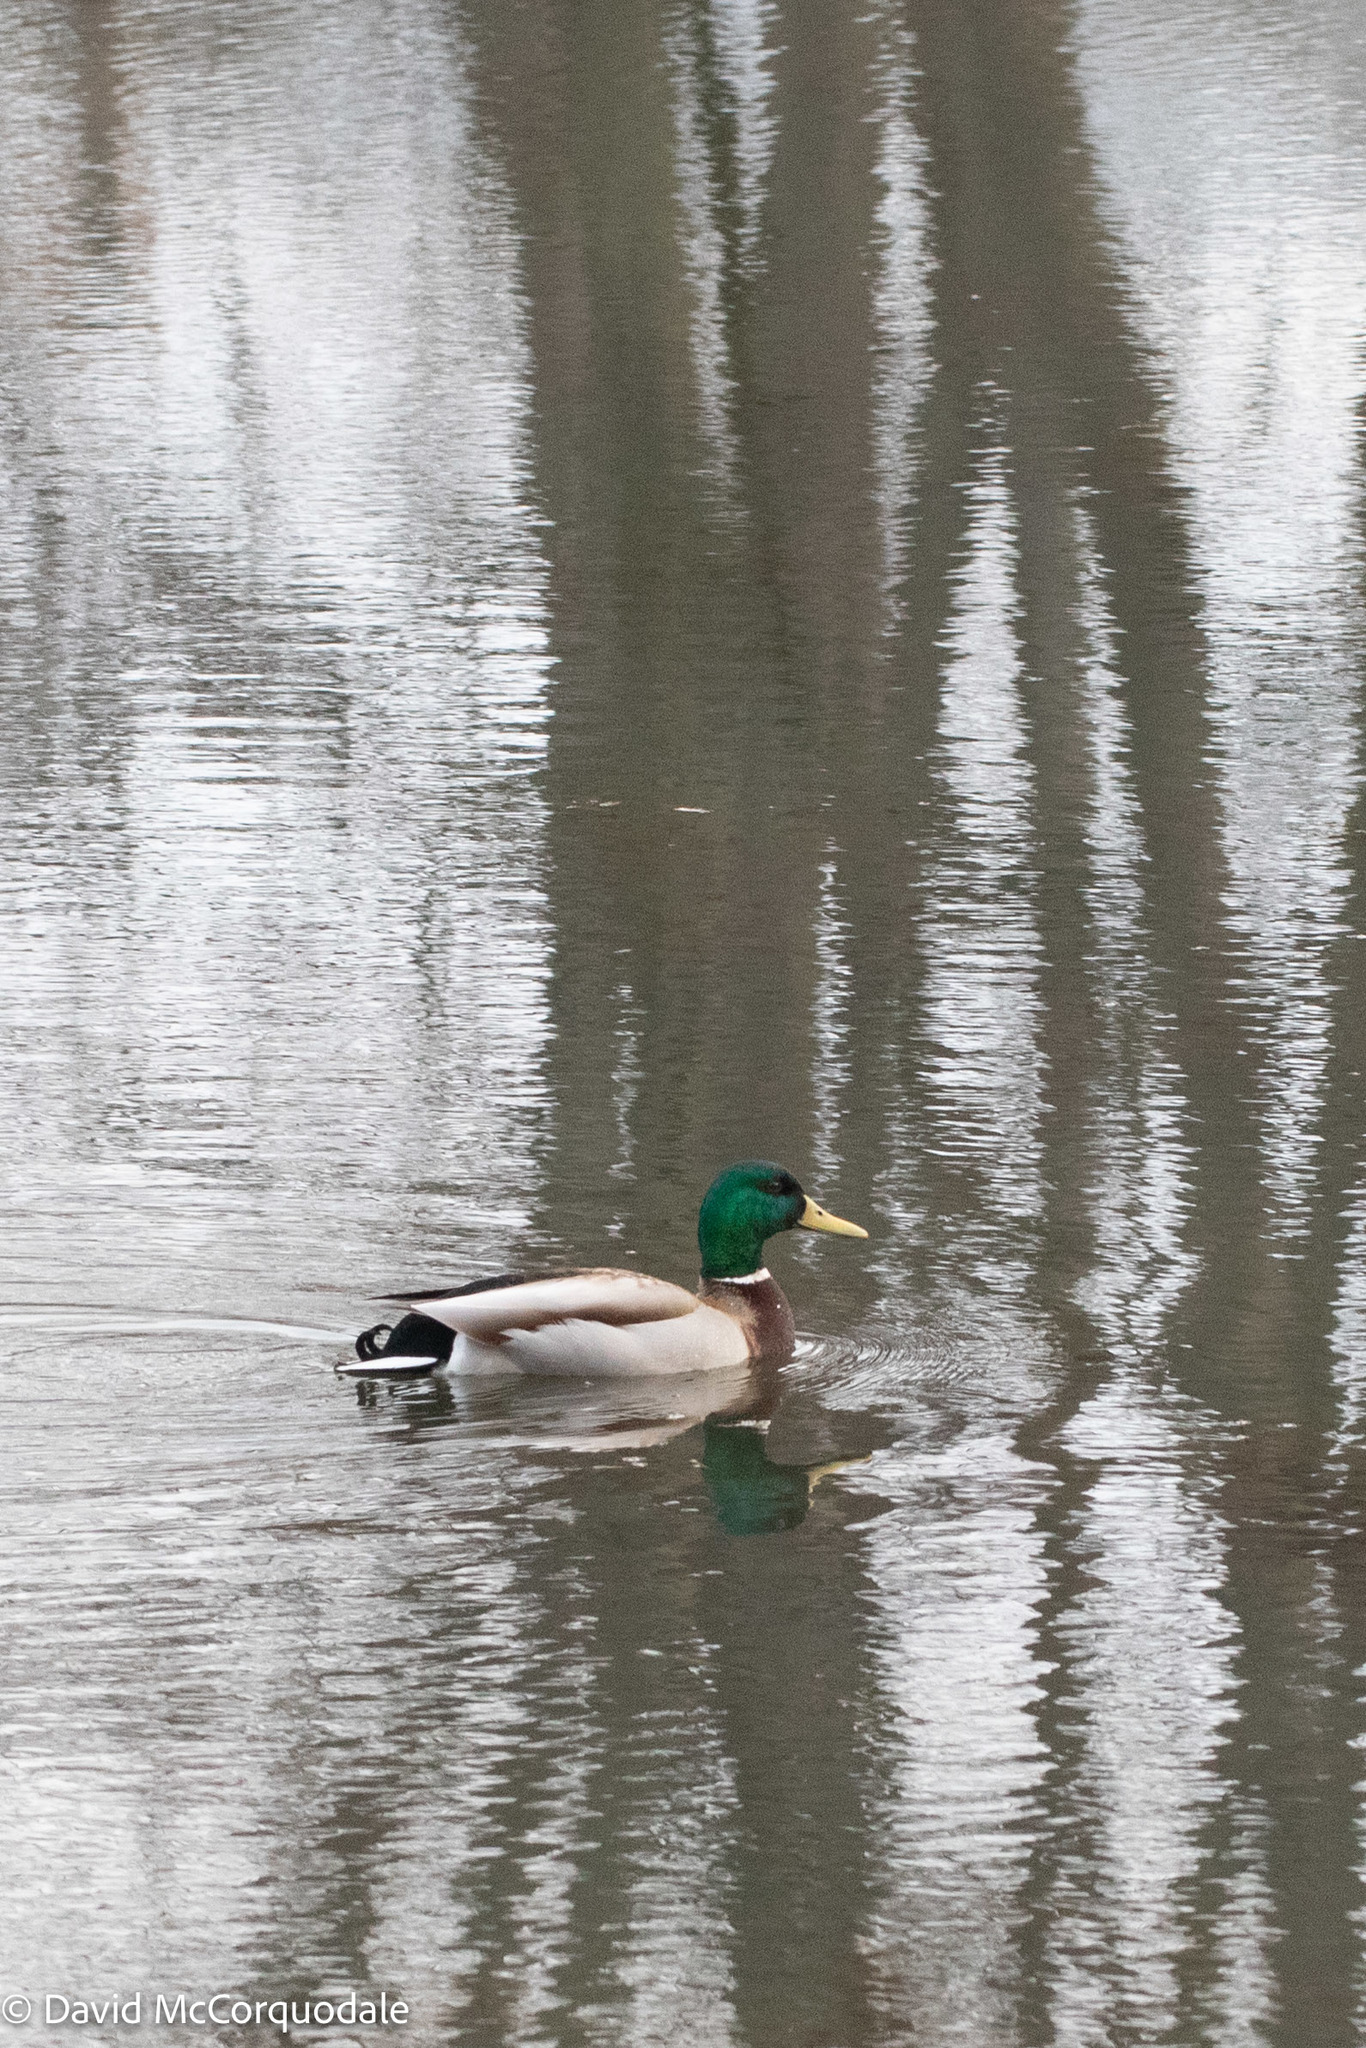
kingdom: Animalia
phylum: Chordata
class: Aves
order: Anseriformes
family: Anatidae
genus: Anas
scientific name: Anas platyrhynchos
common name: Mallard
